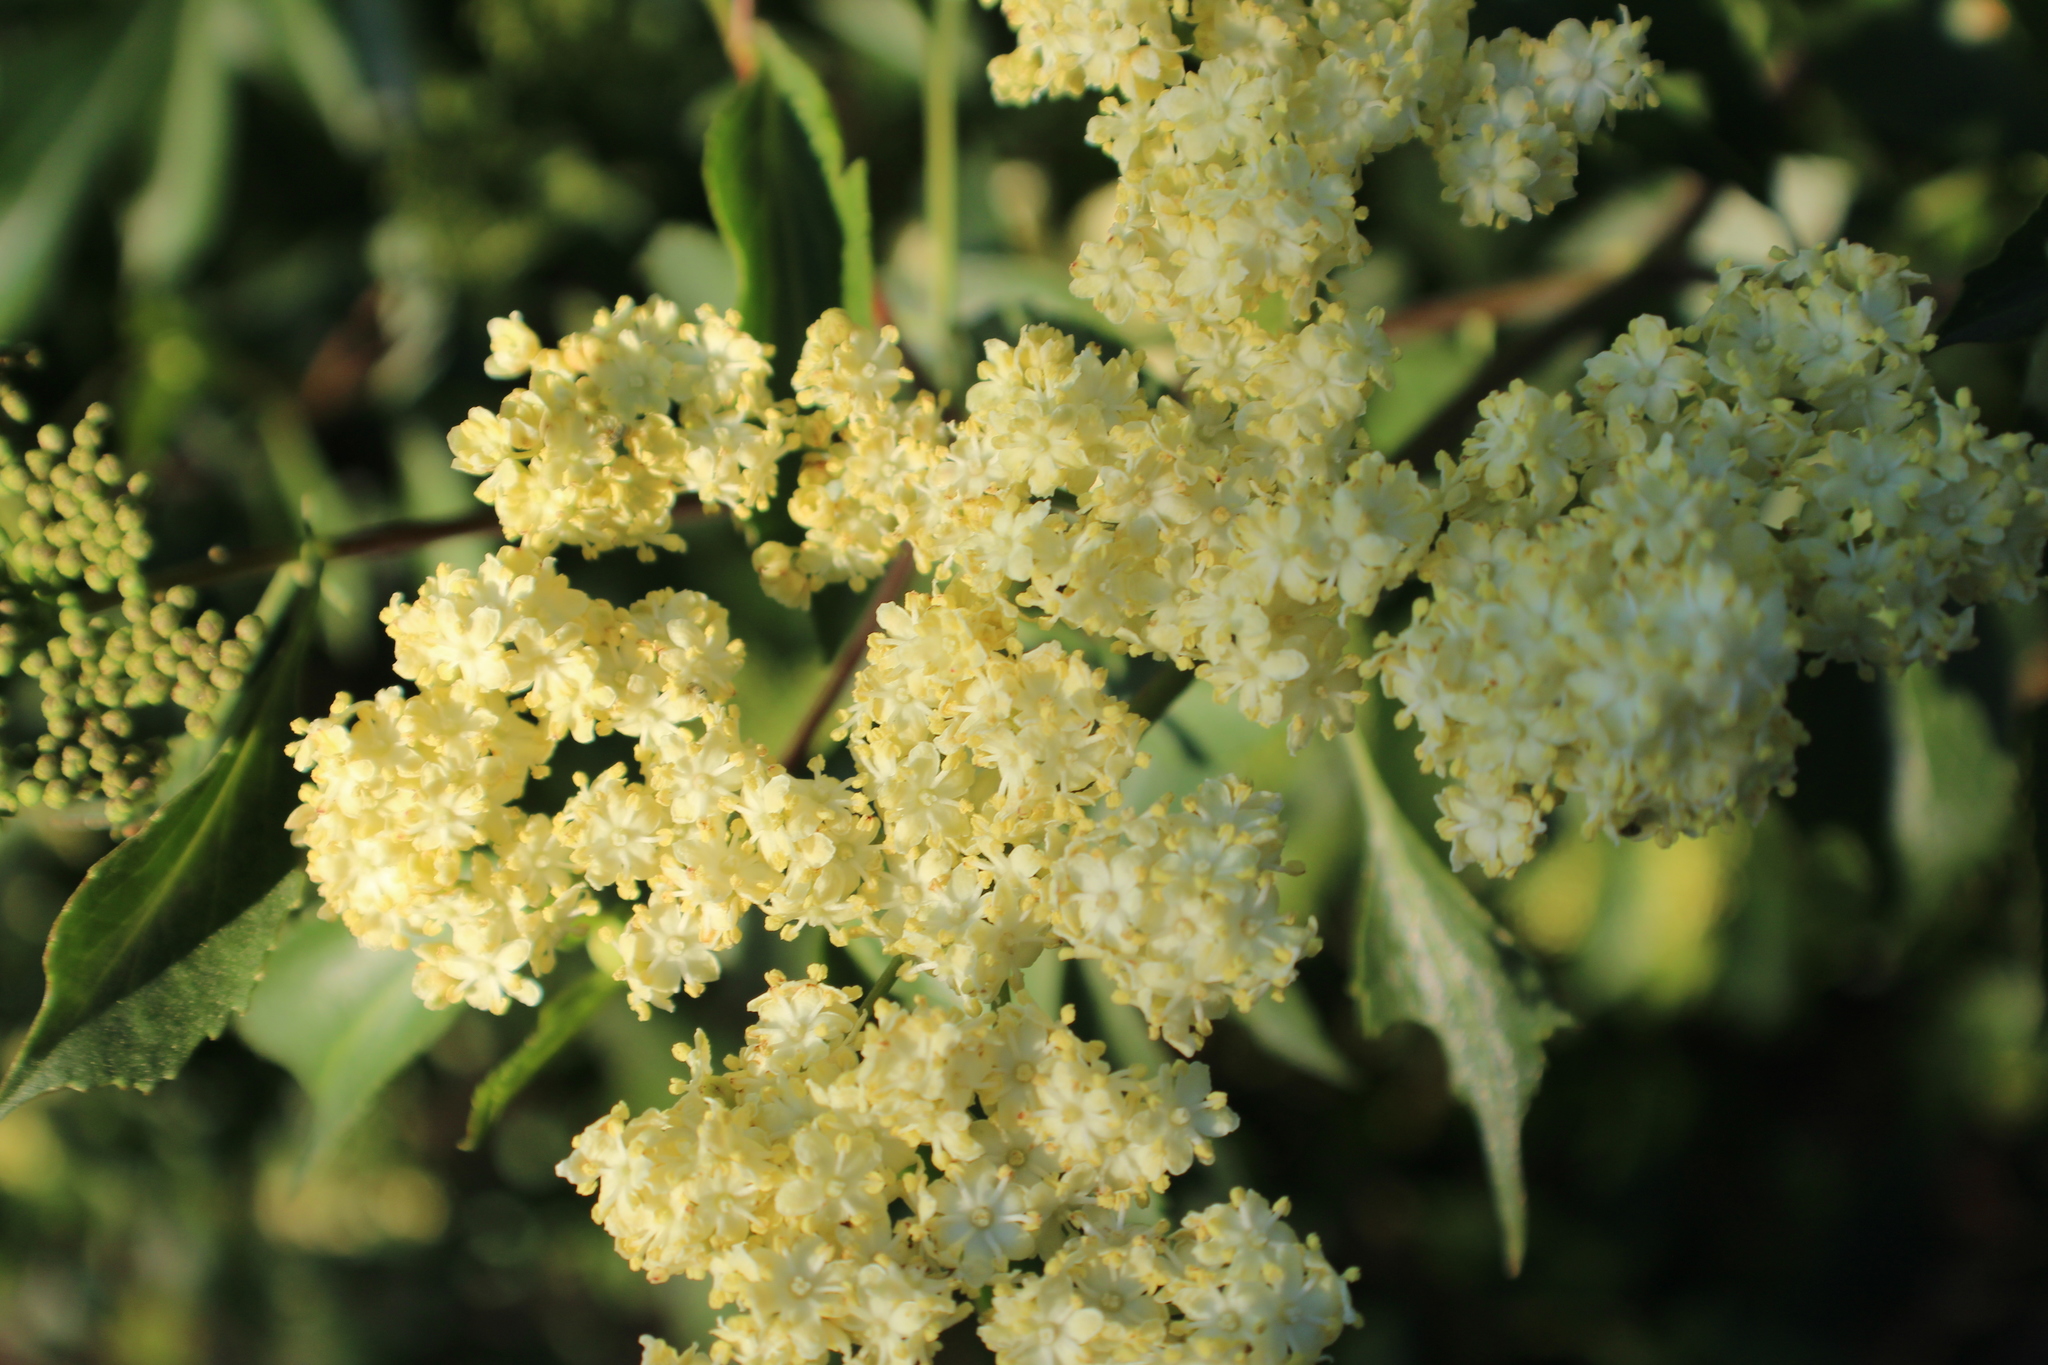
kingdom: Plantae
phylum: Tracheophyta
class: Magnoliopsida
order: Dipsacales
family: Viburnaceae
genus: Sambucus
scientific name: Sambucus cerulea
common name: Blue elder
